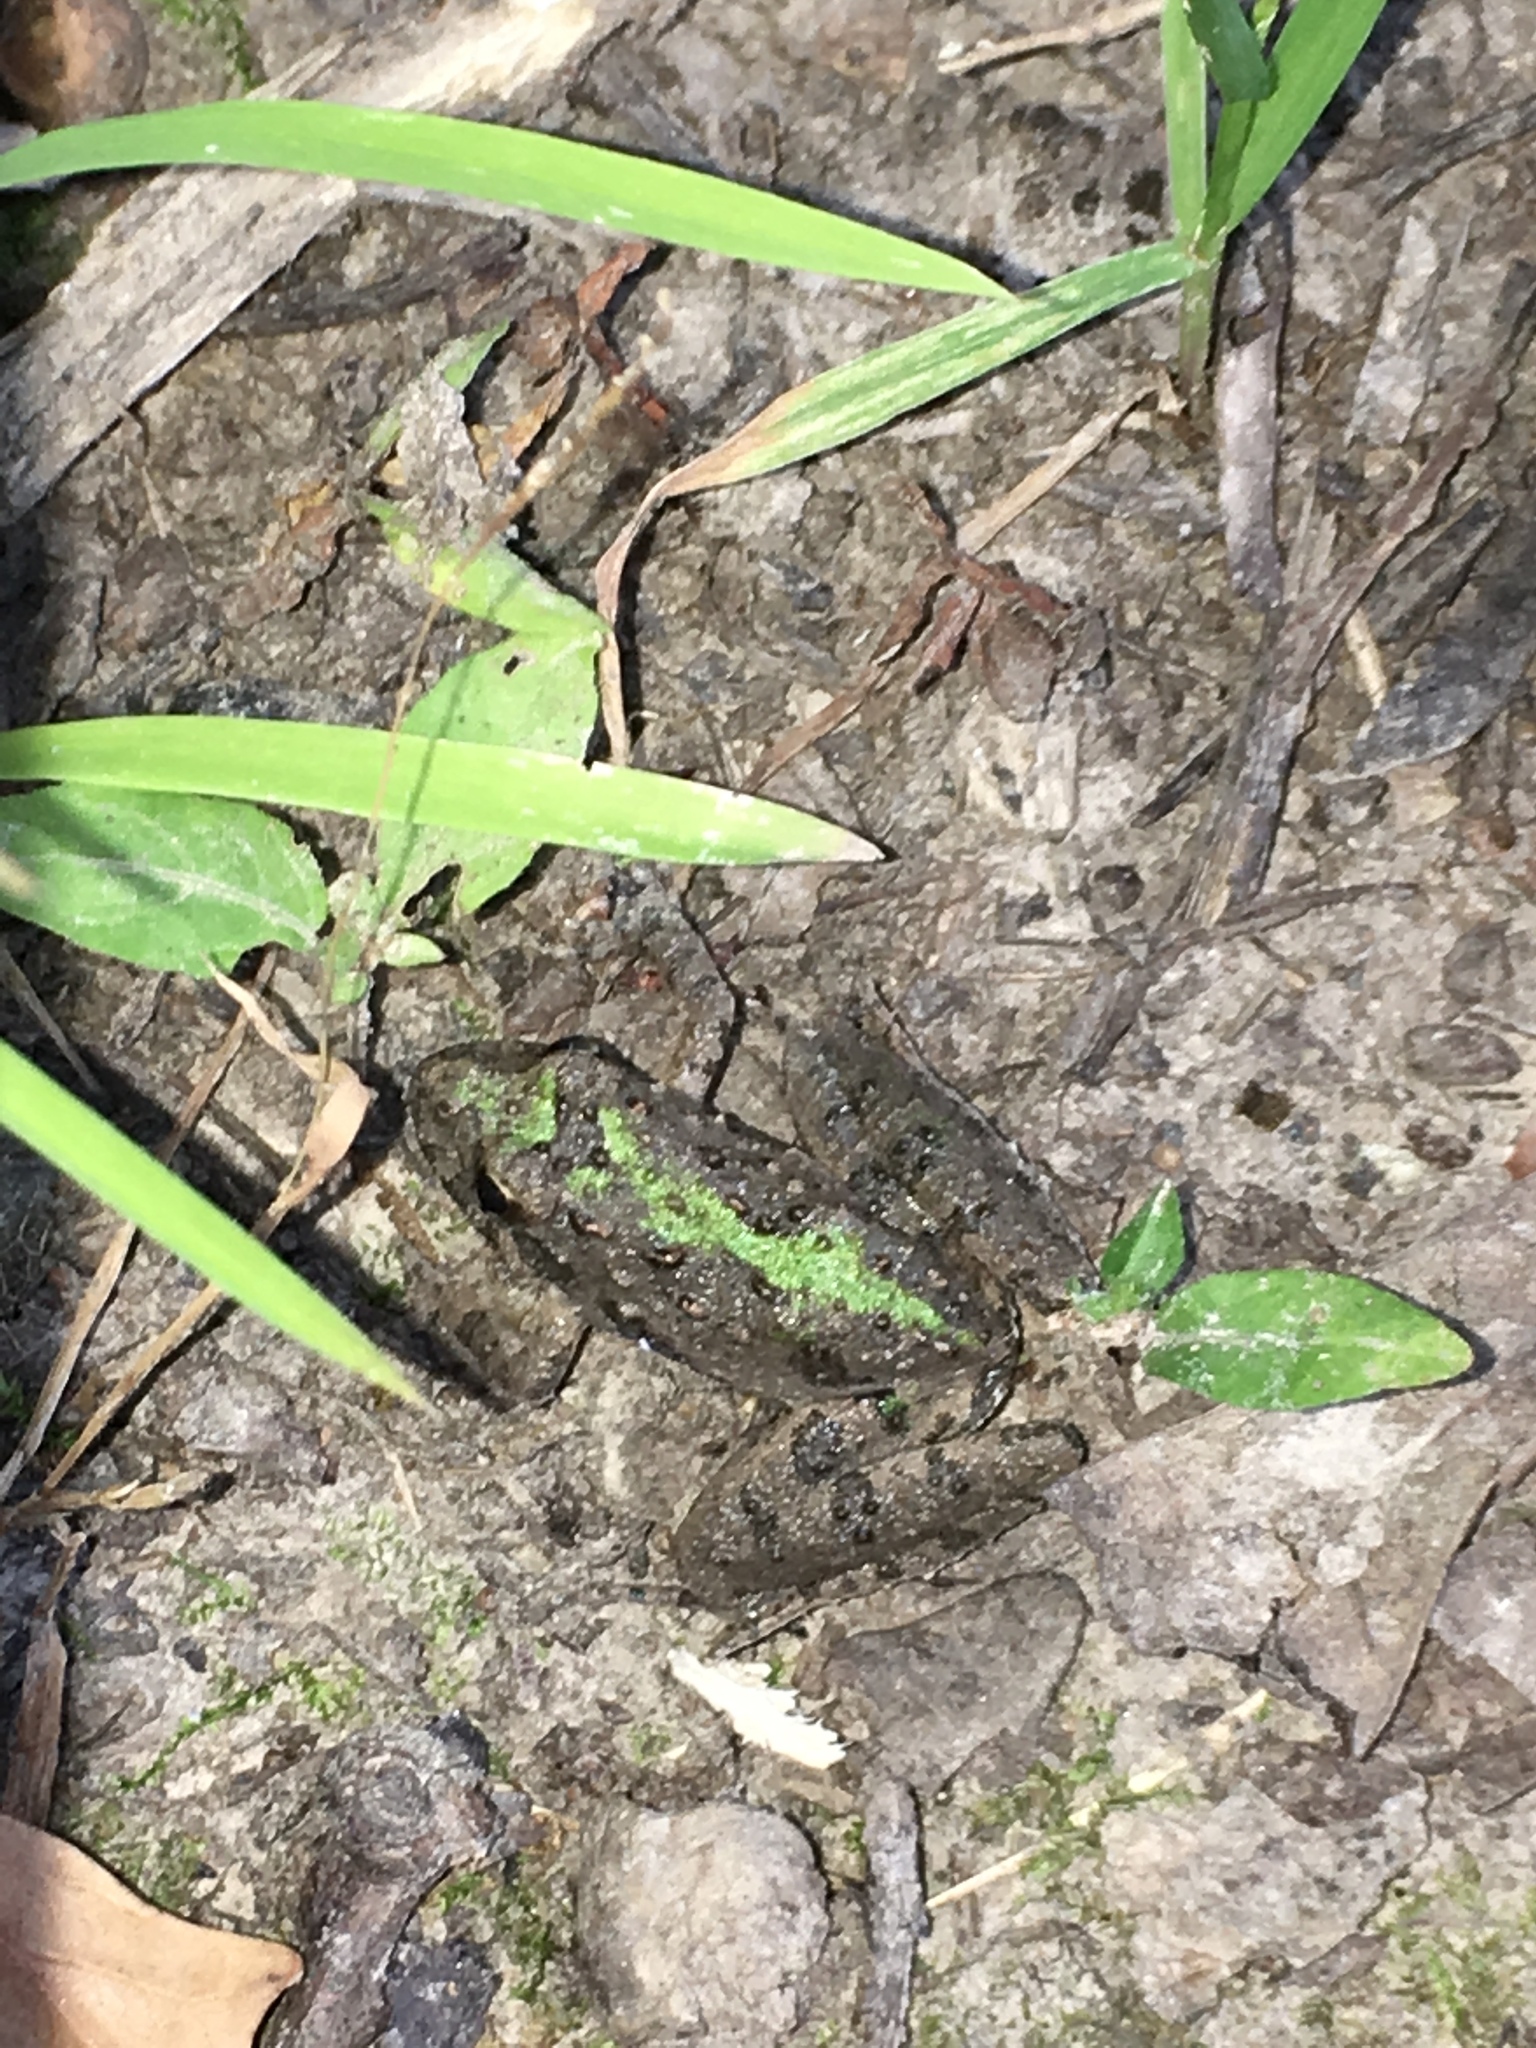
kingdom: Animalia
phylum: Chordata
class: Amphibia
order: Anura
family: Hylidae
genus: Acris
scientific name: Acris blanchardi
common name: Blanchard's cricket frog
